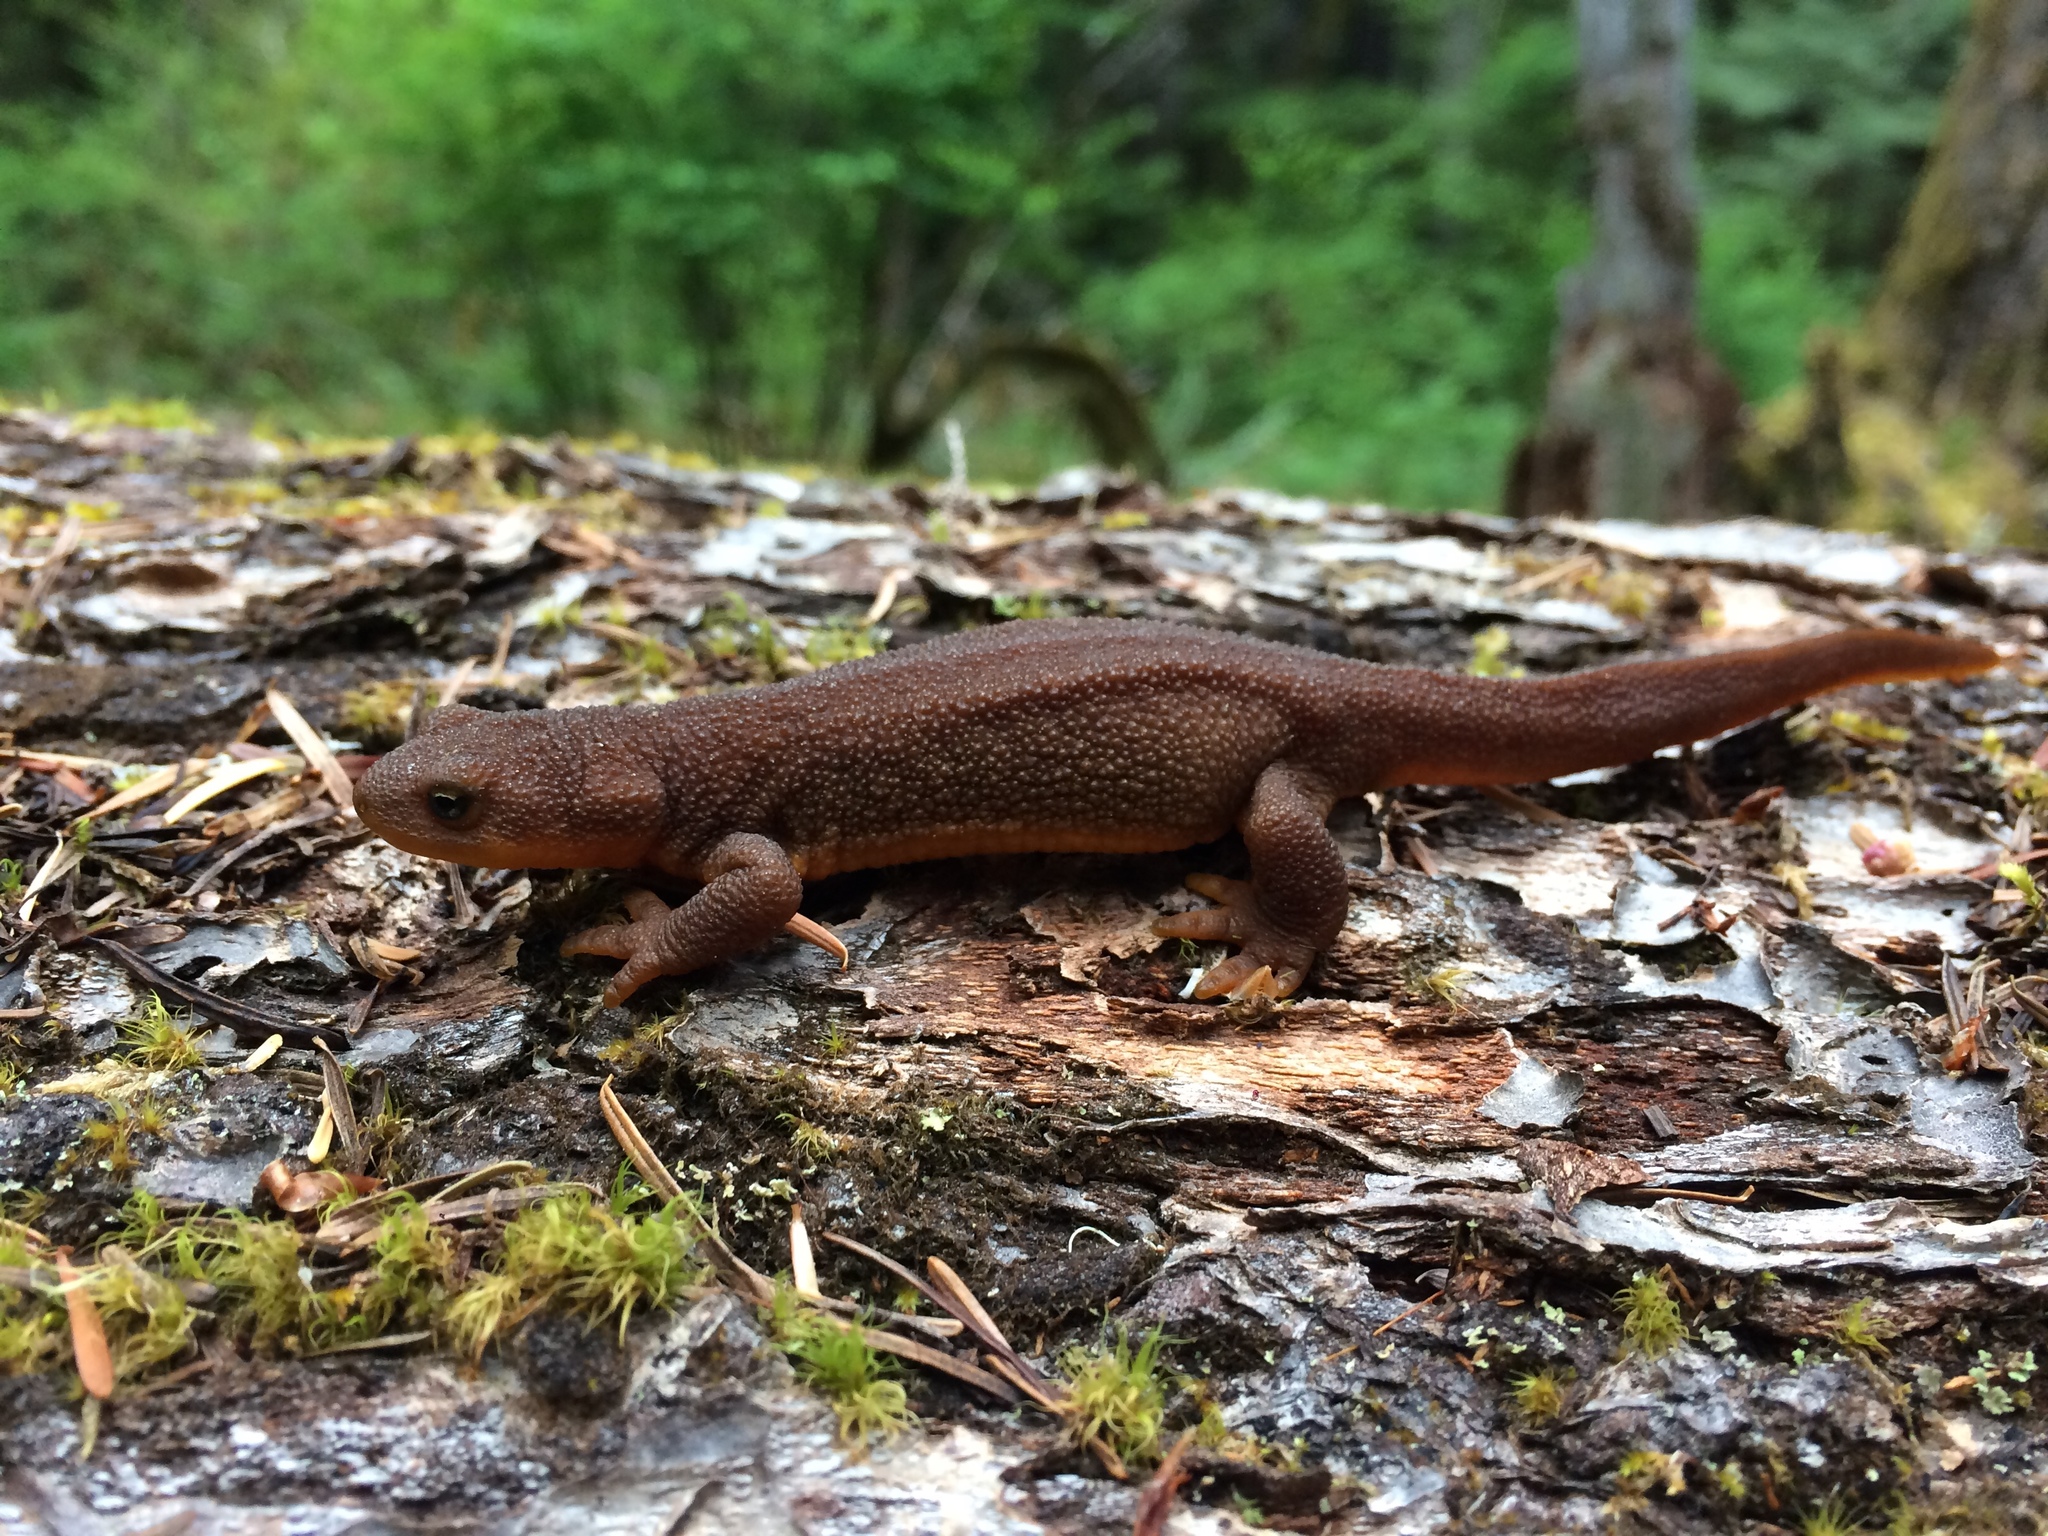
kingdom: Animalia
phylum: Chordata
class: Amphibia
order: Caudata
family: Salamandridae
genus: Taricha
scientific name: Taricha granulosa
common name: Roughskin newt
